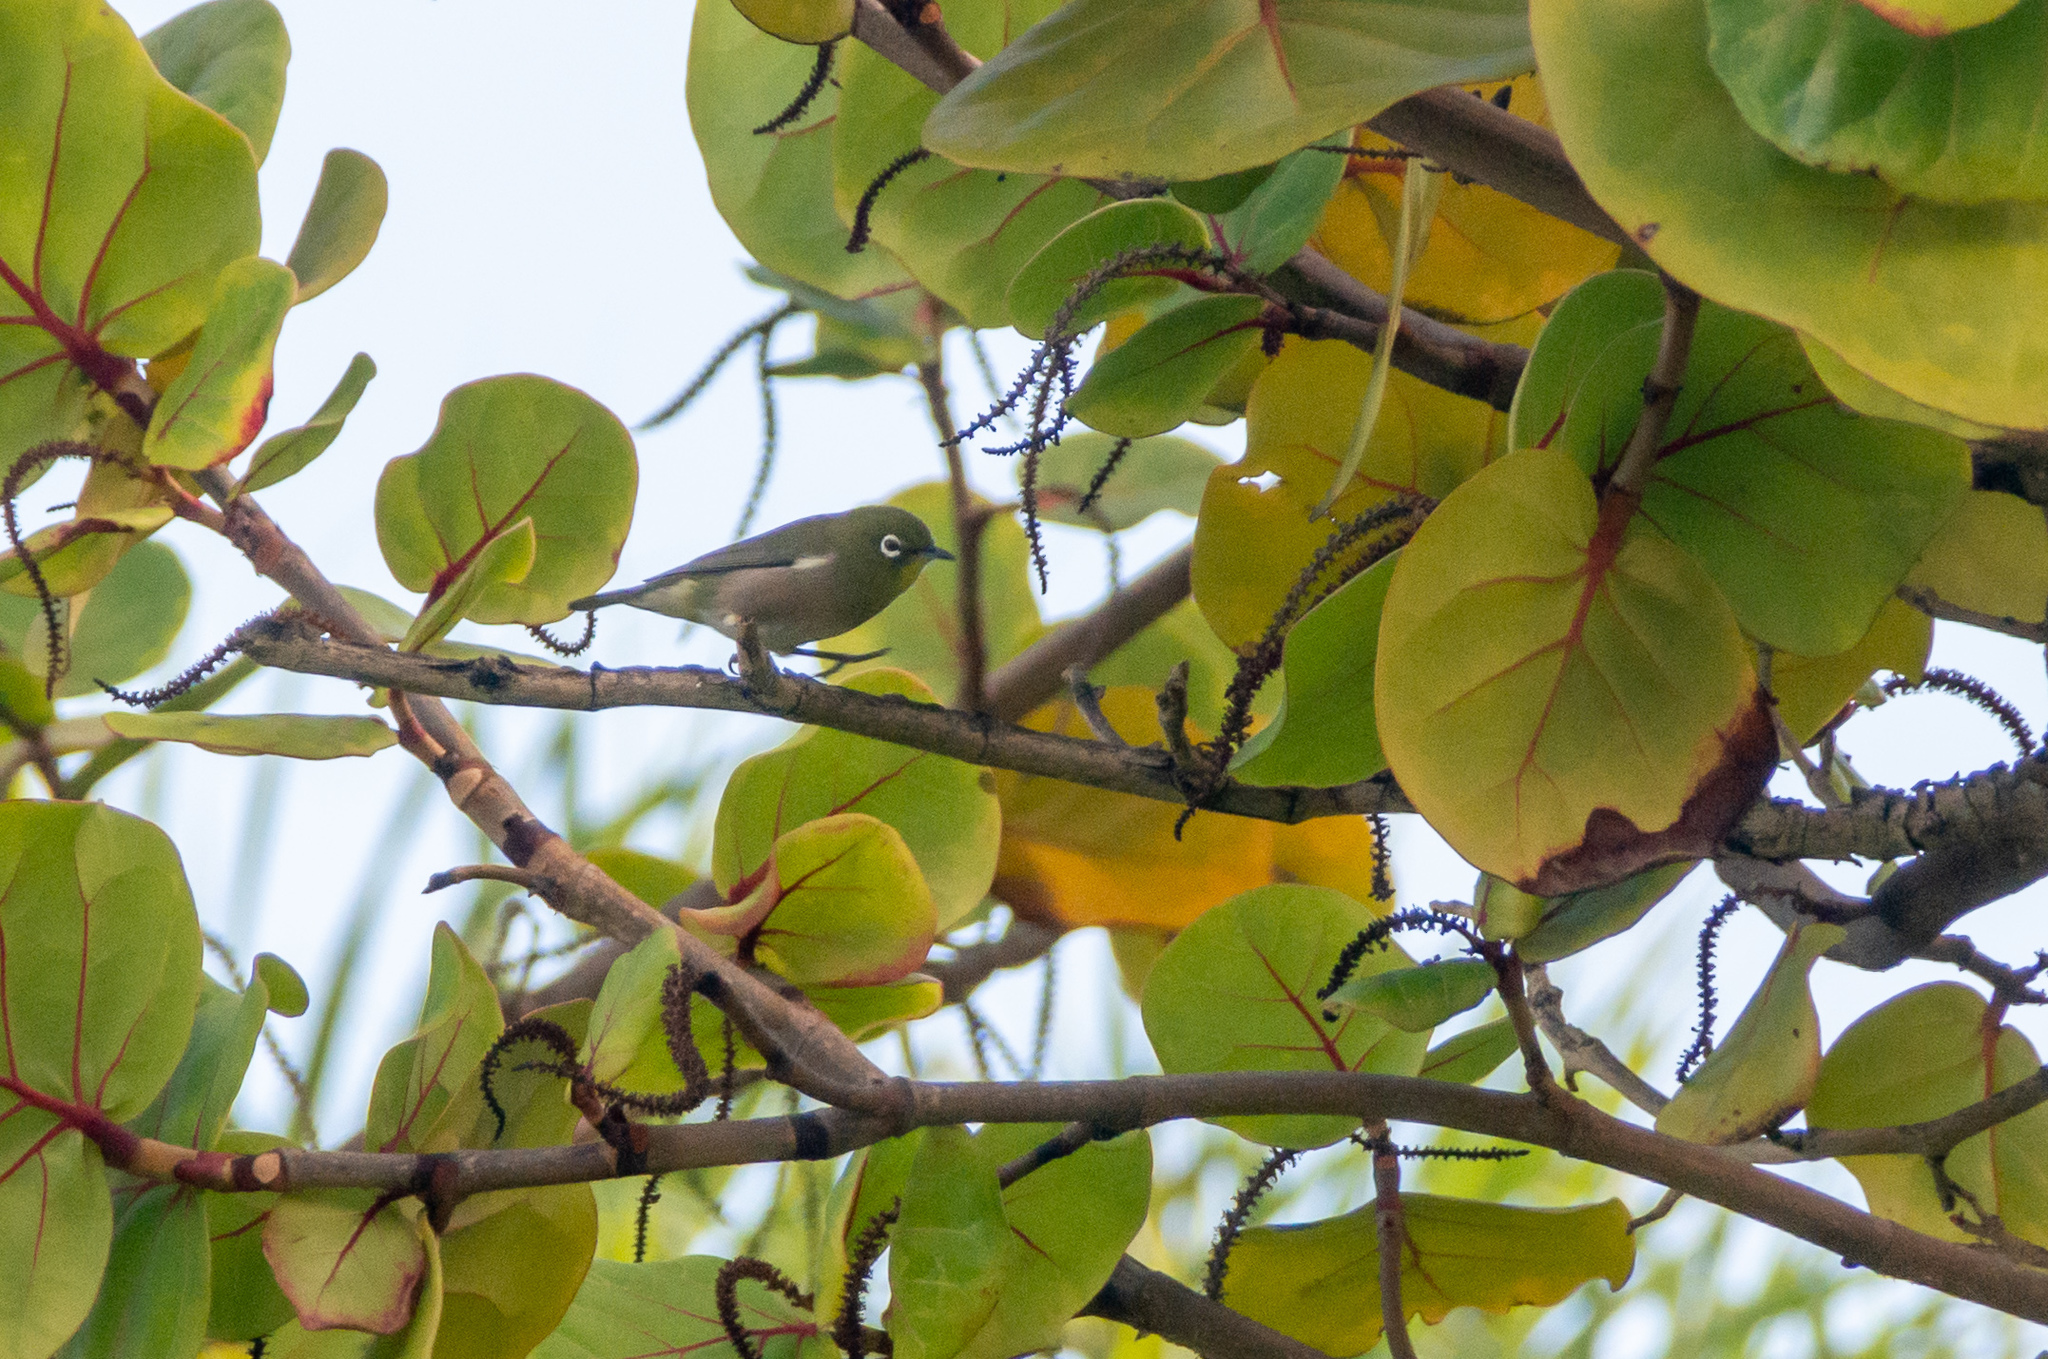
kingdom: Animalia
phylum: Chordata
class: Aves
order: Passeriformes
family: Zosteropidae
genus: Zosterops
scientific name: Zosterops japonicus
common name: Japanese white-eye
